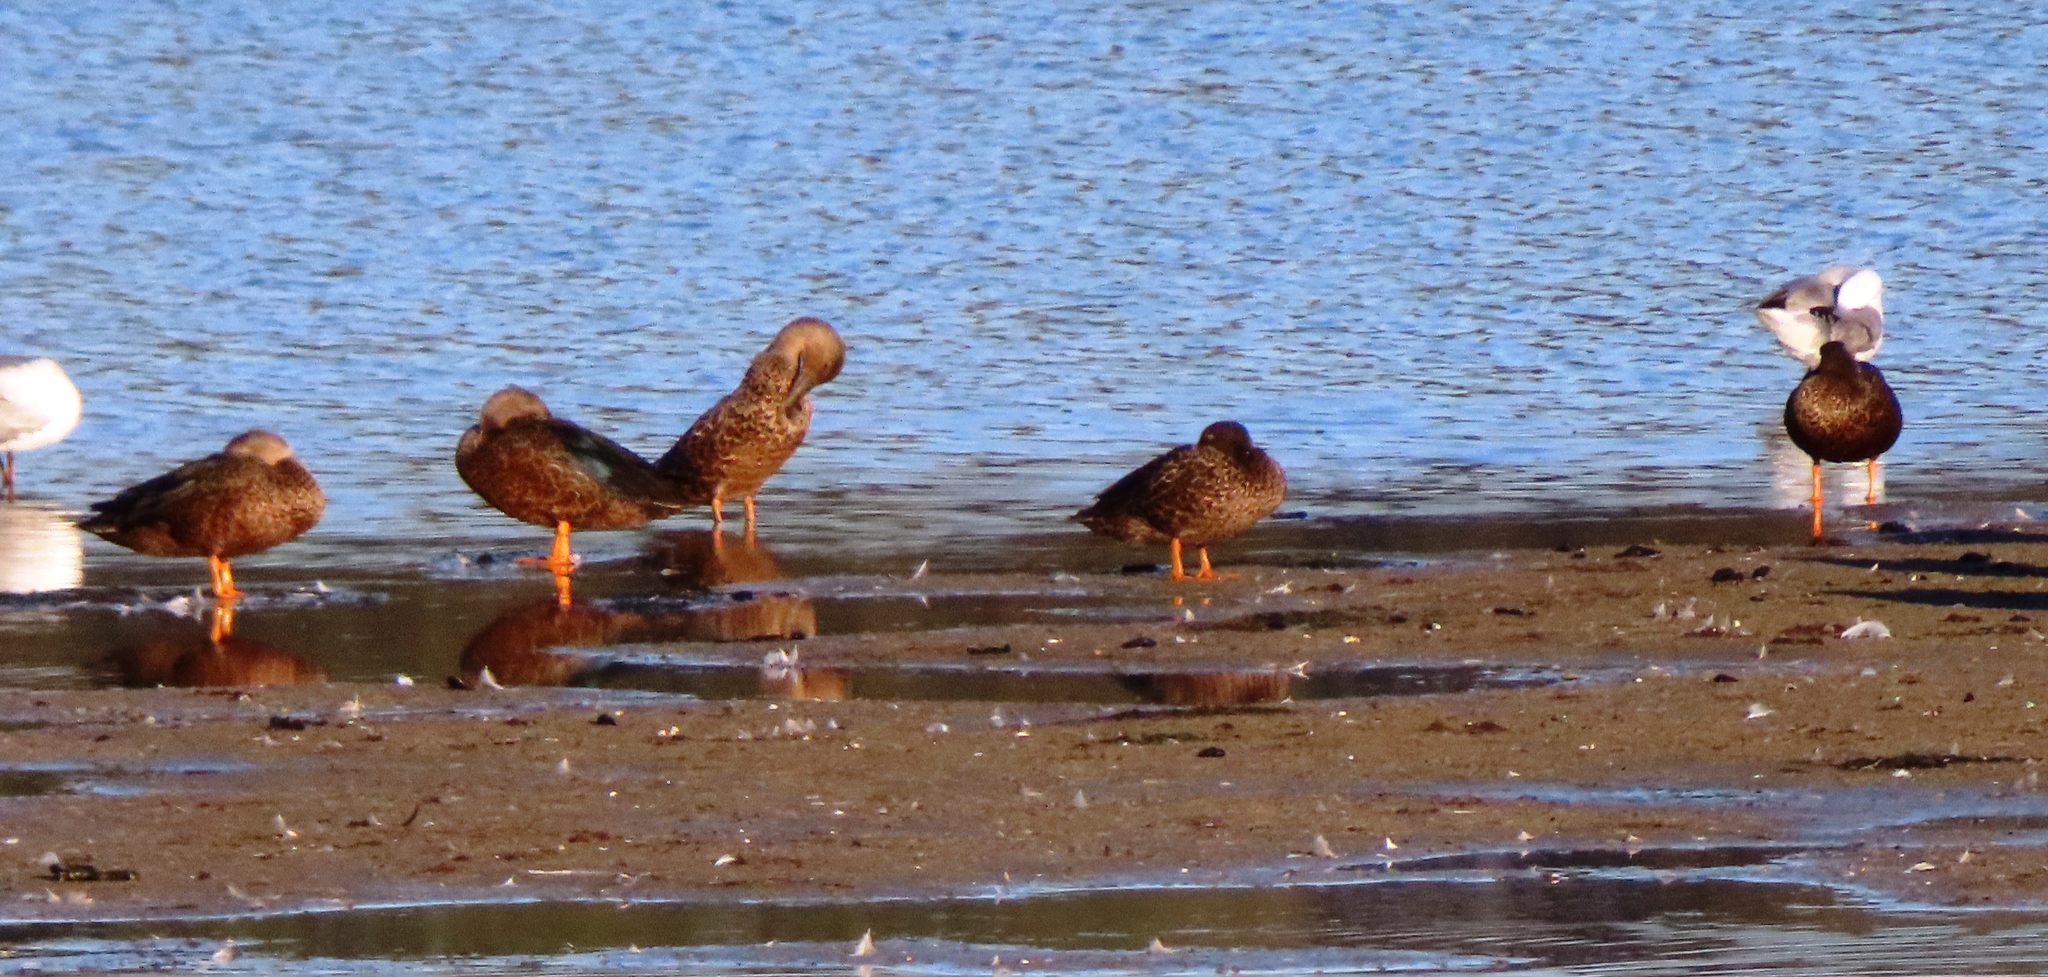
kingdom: Animalia
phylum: Chordata
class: Aves
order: Anseriformes
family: Anatidae
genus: Spatula
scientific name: Spatula smithii
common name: Cape shoveler
